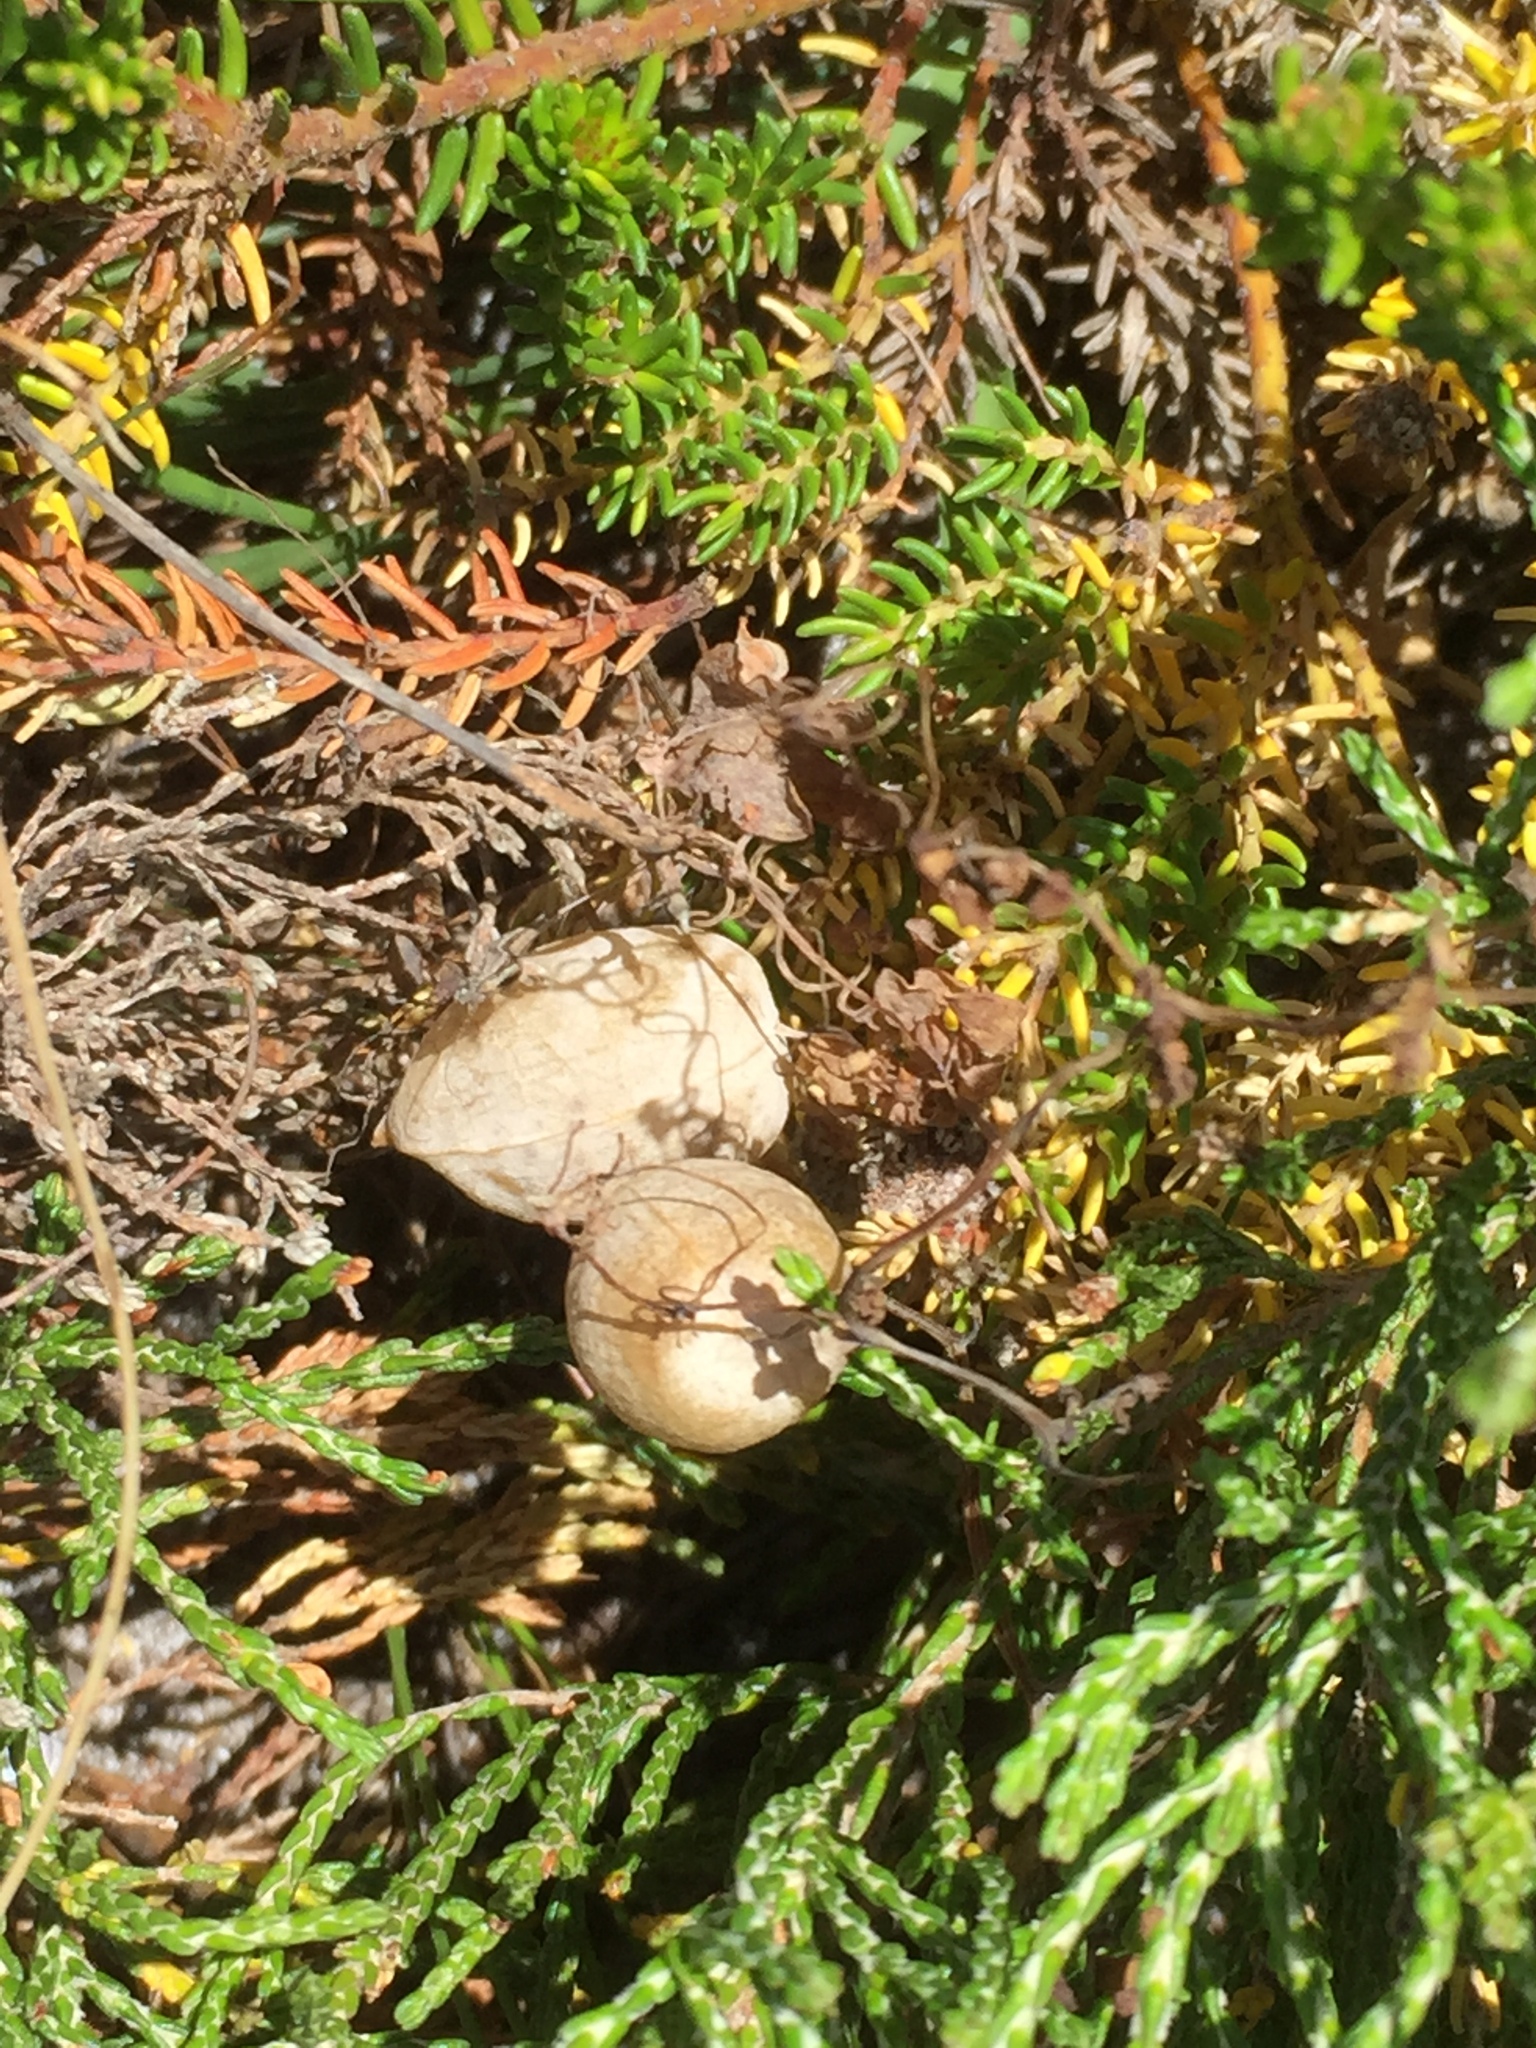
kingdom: Plantae
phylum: Tracheophyta
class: Magnoliopsida
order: Ranunculales
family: Papaveraceae
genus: Cysticapnos
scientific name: Cysticapnos vesicaria
